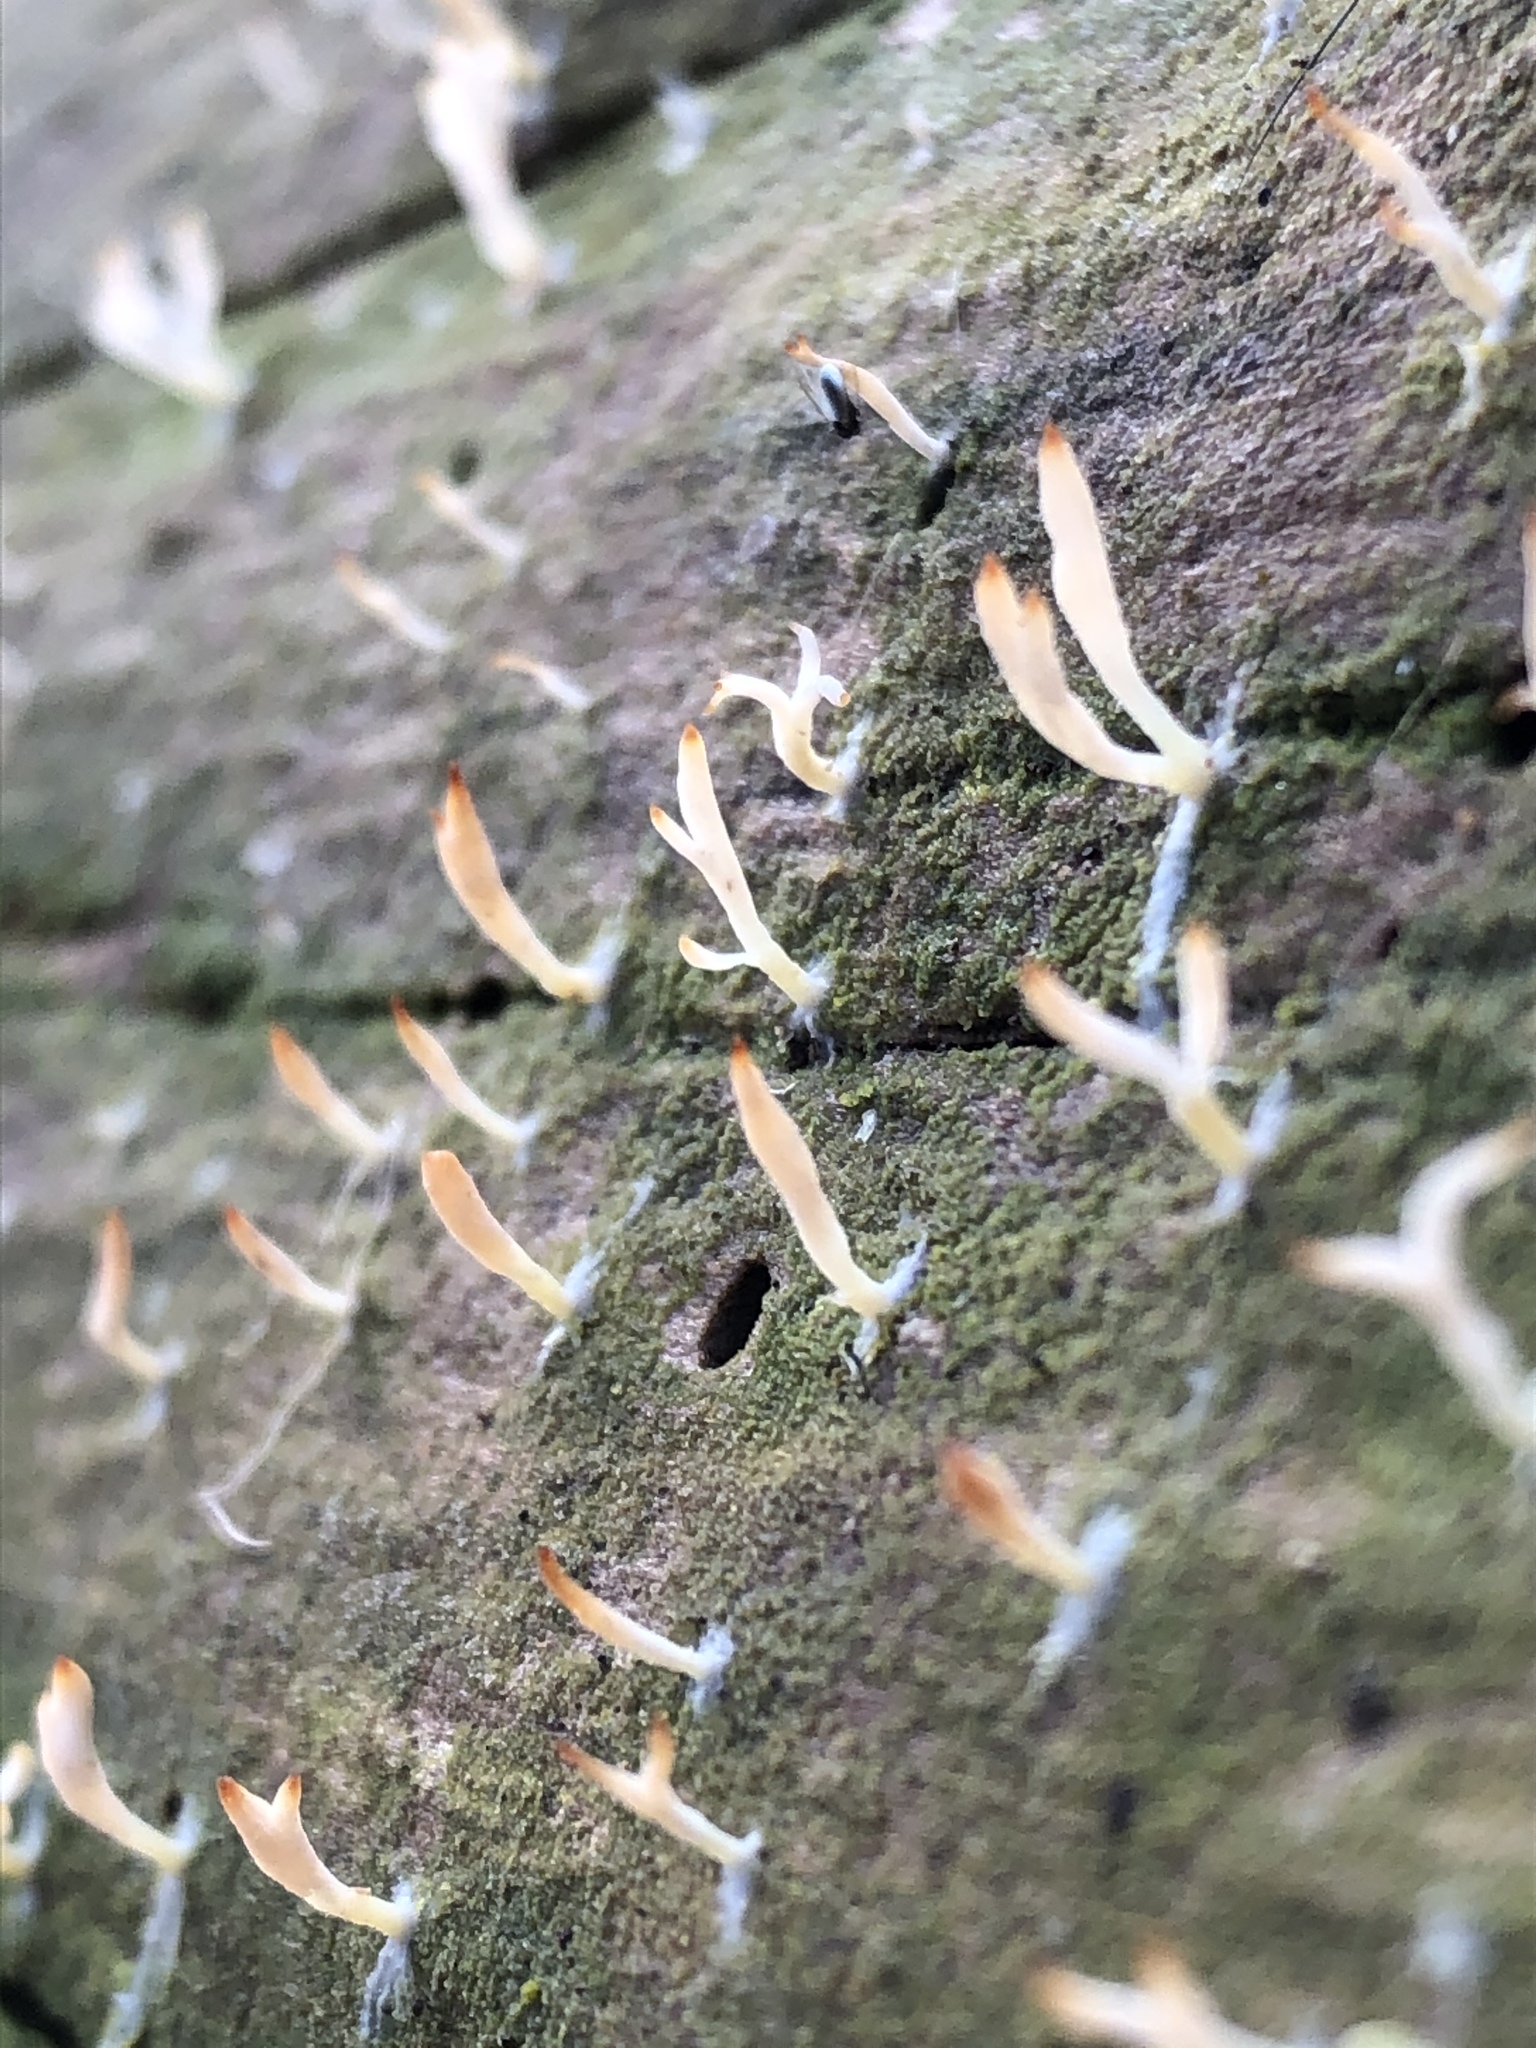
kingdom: Fungi
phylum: Basidiomycota
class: Agaricomycetes
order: Cantharellales
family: Hydnaceae
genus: Multiclavula
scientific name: Multiclavula mucida
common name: White green-algae coral
